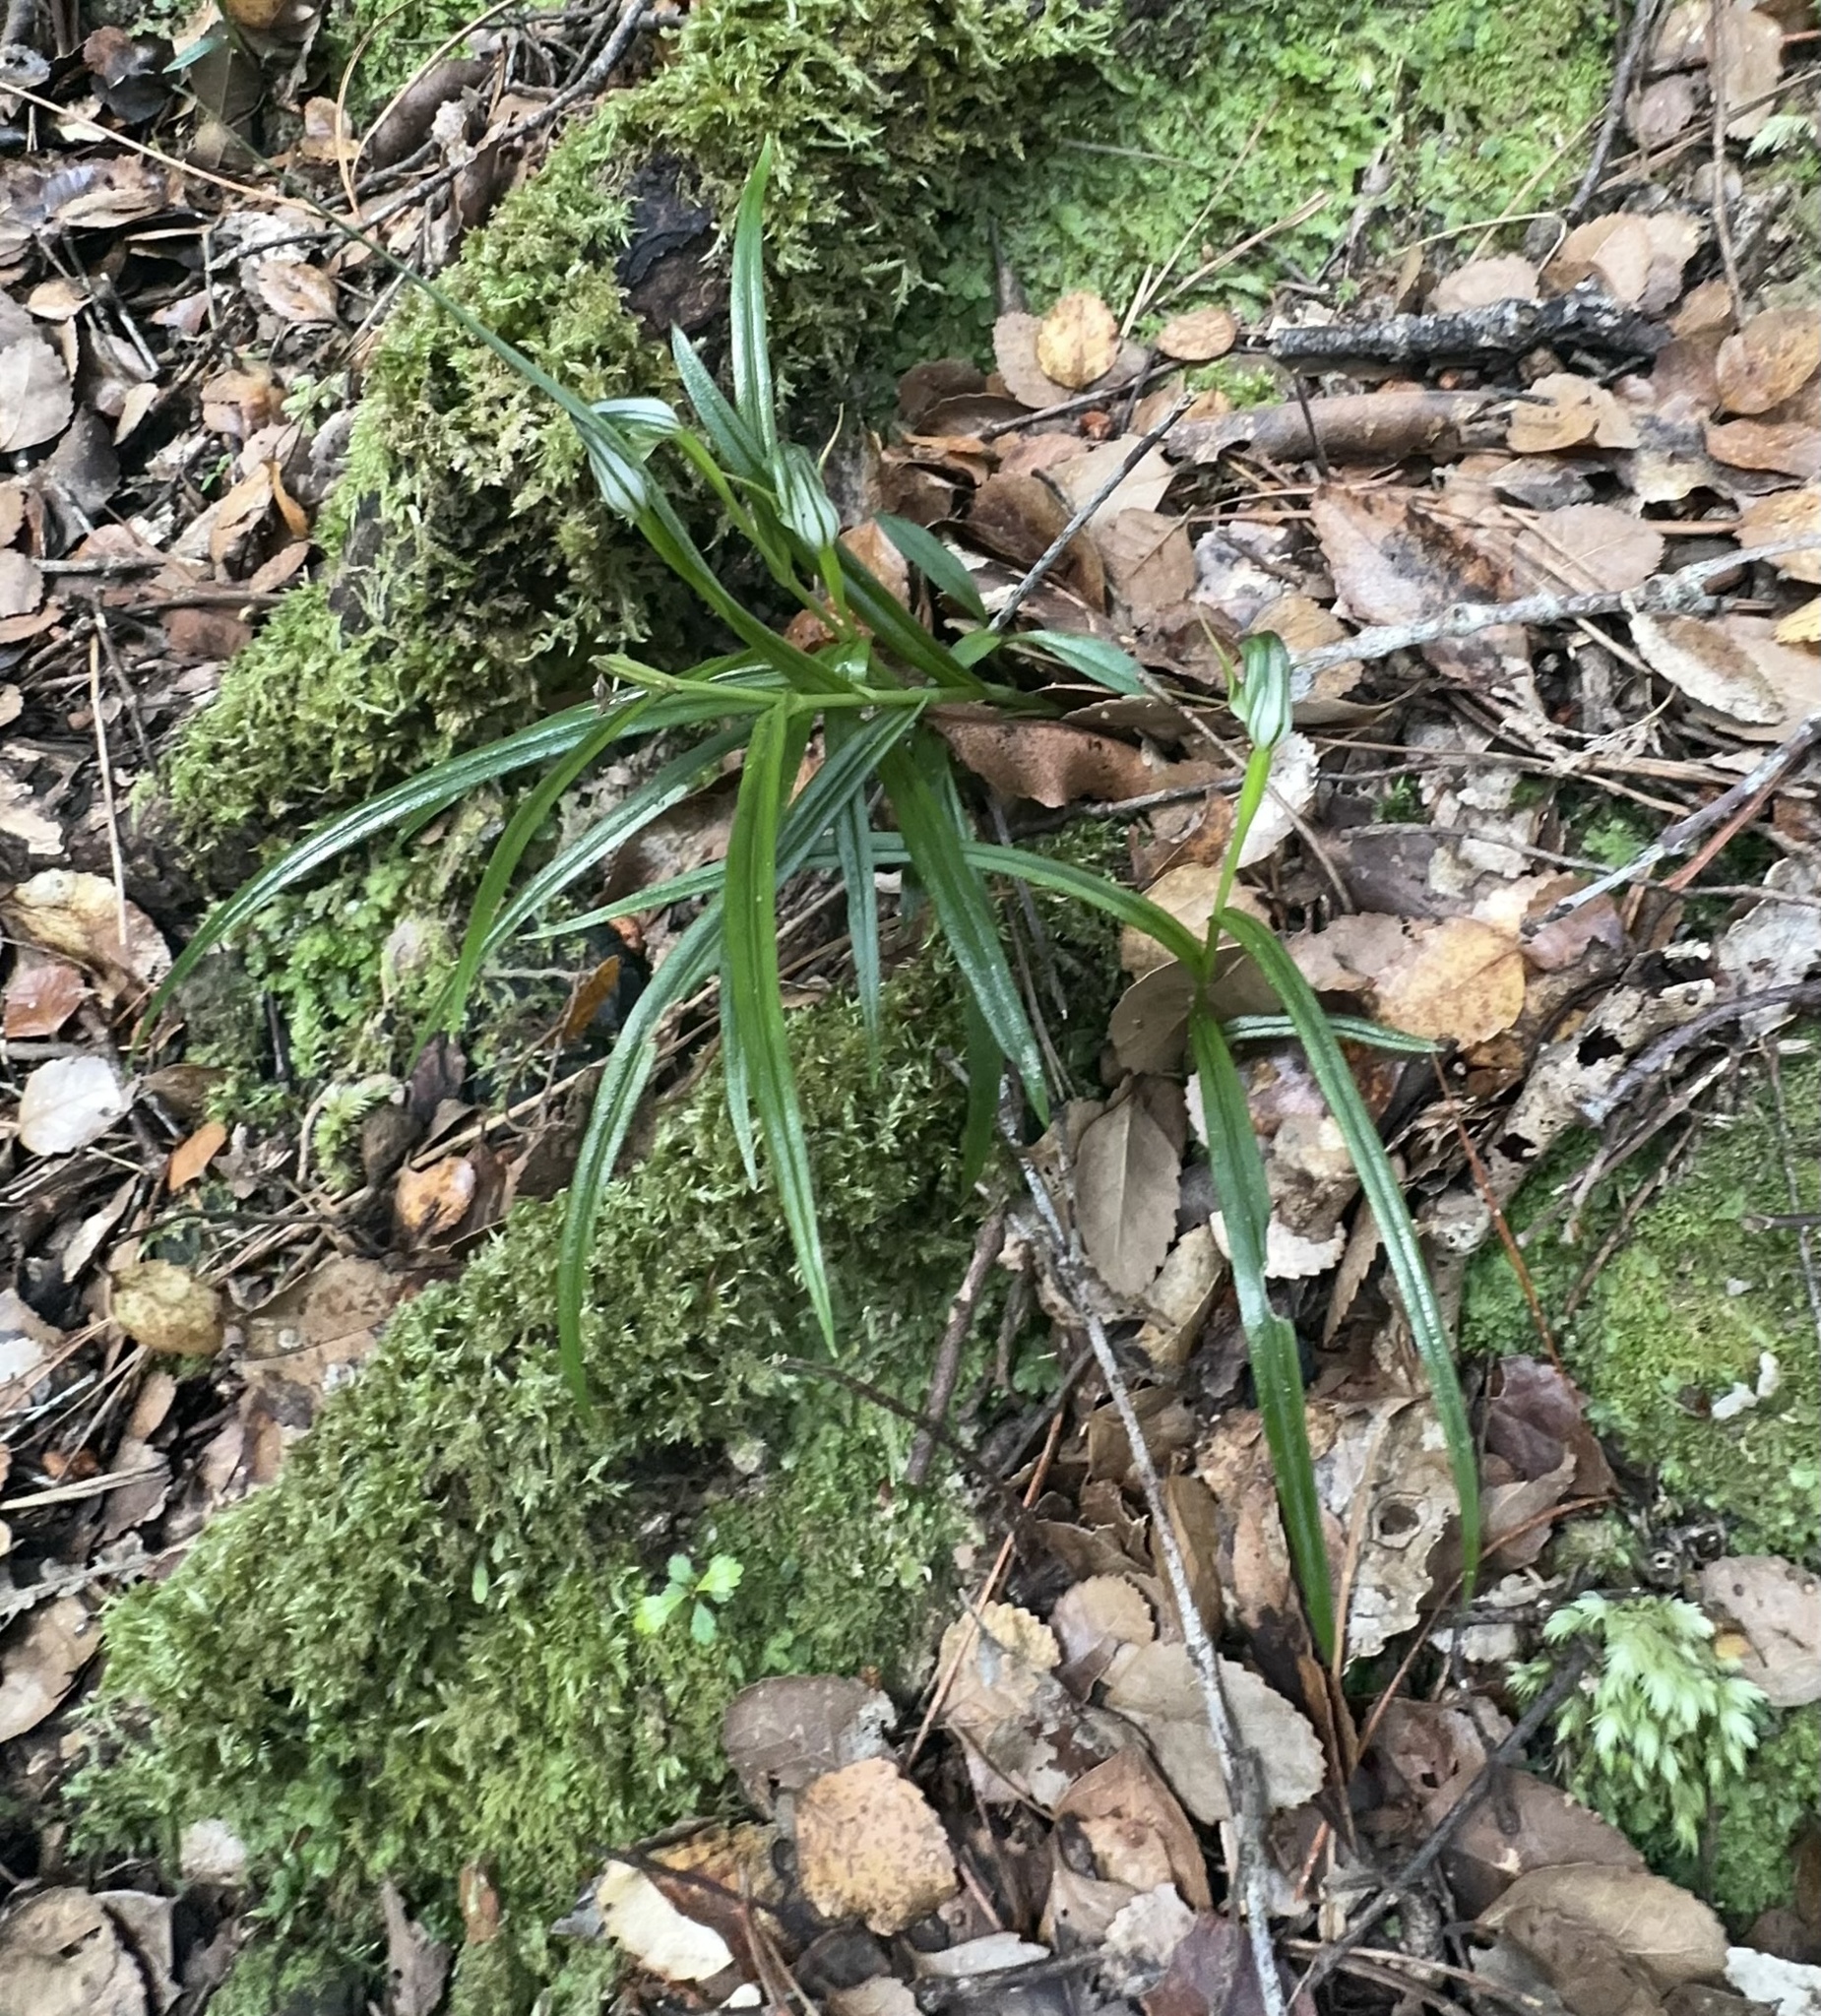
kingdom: Plantae
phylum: Tracheophyta
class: Liliopsida
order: Asparagales
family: Orchidaceae
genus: Pterostylis
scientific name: Pterostylis graminea
